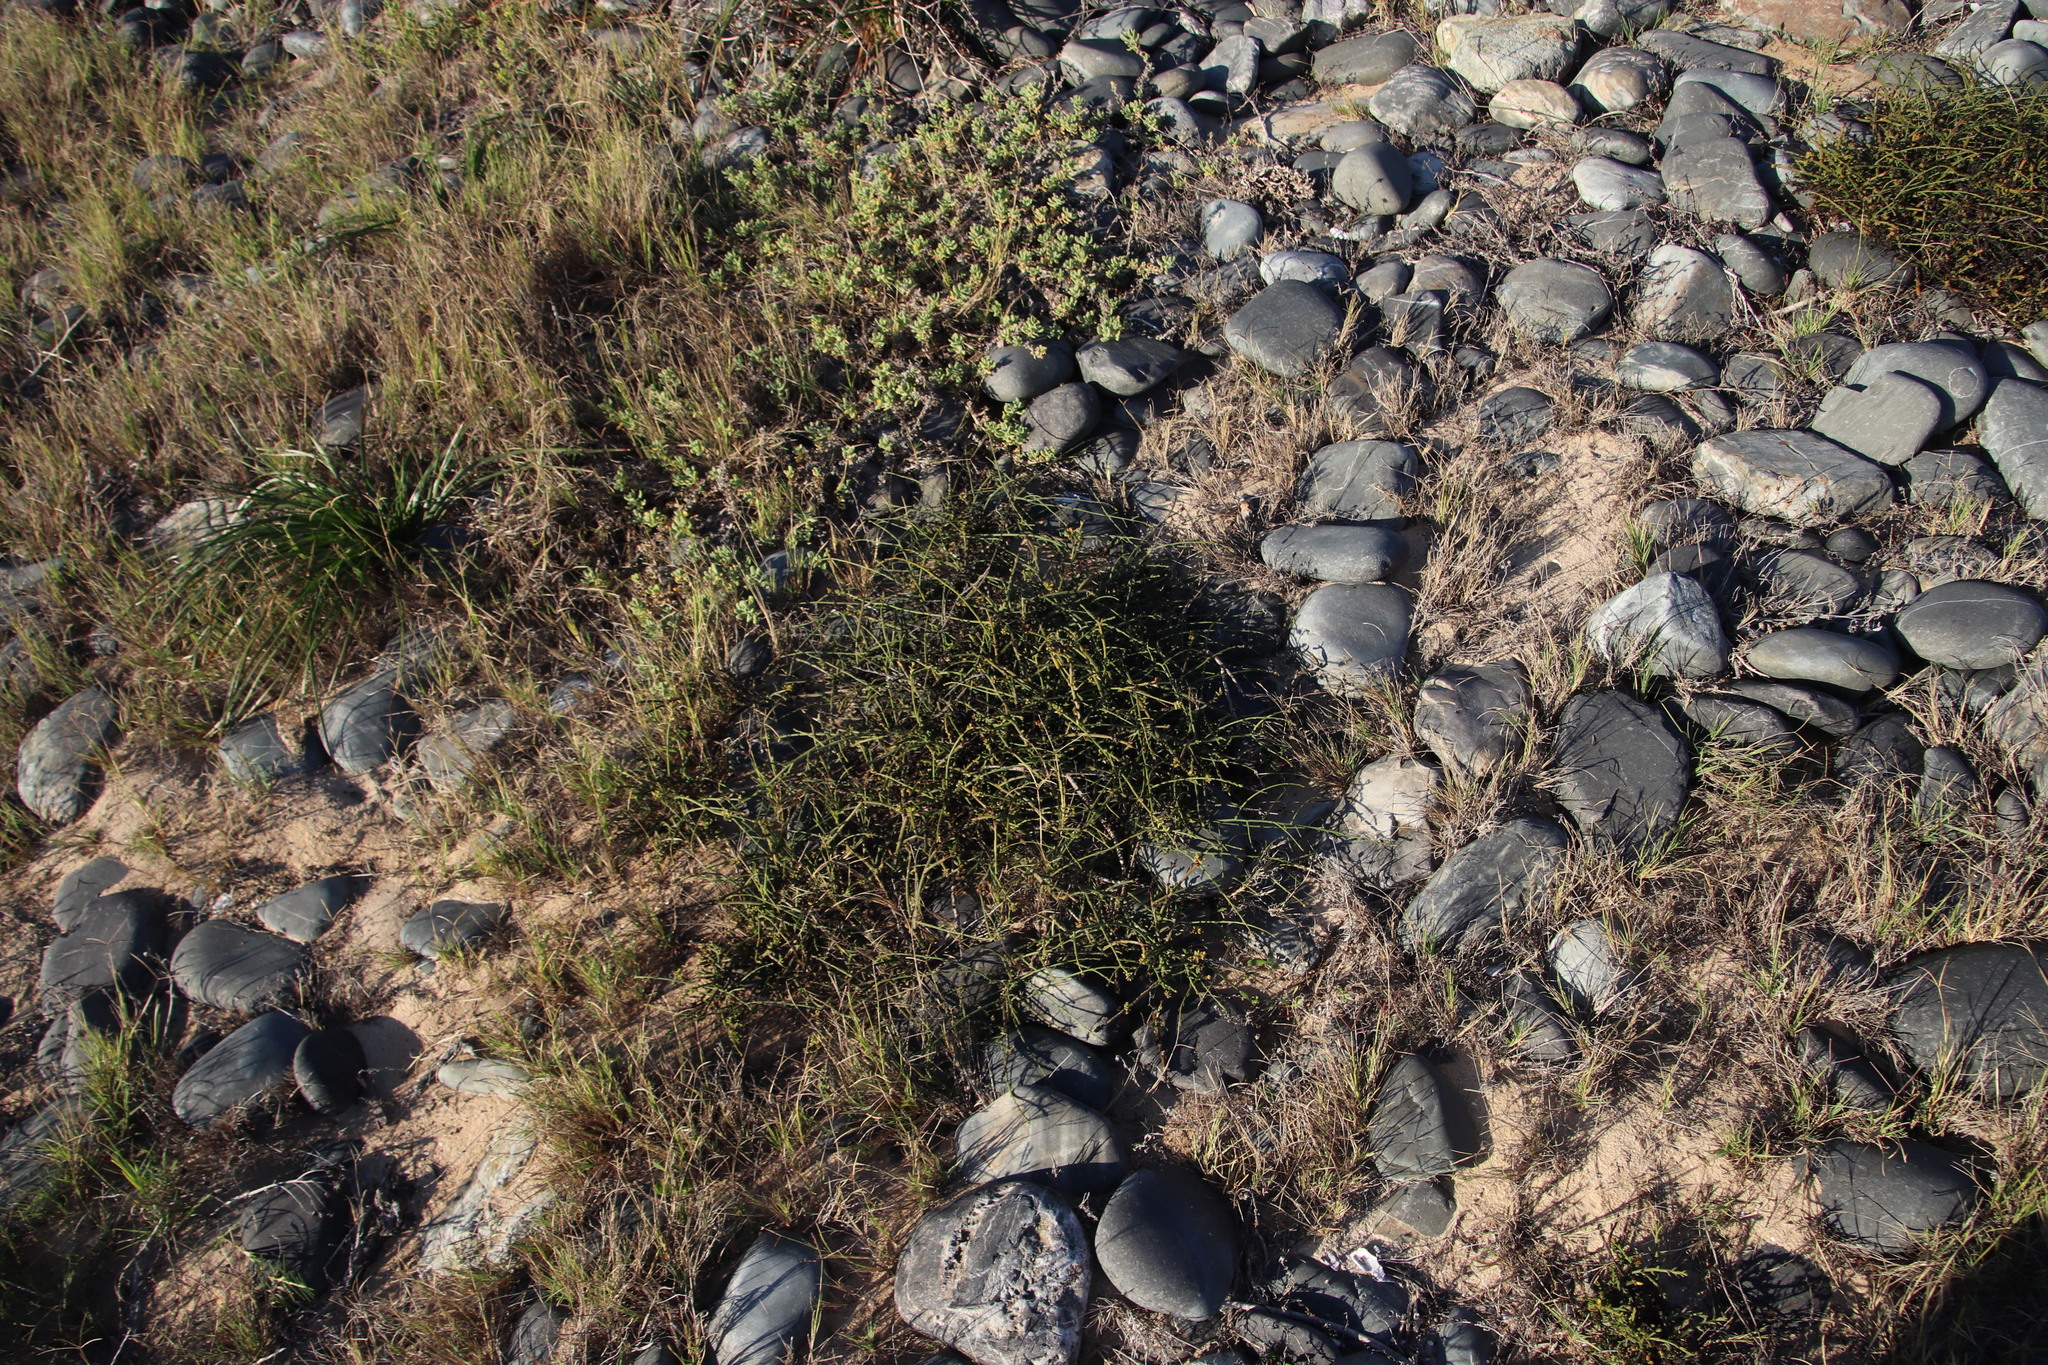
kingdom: Plantae
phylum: Tracheophyta
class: Magnoliopsida
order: Santalales
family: Thesiaceae
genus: Thesium
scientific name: Thesium macrostachyum
